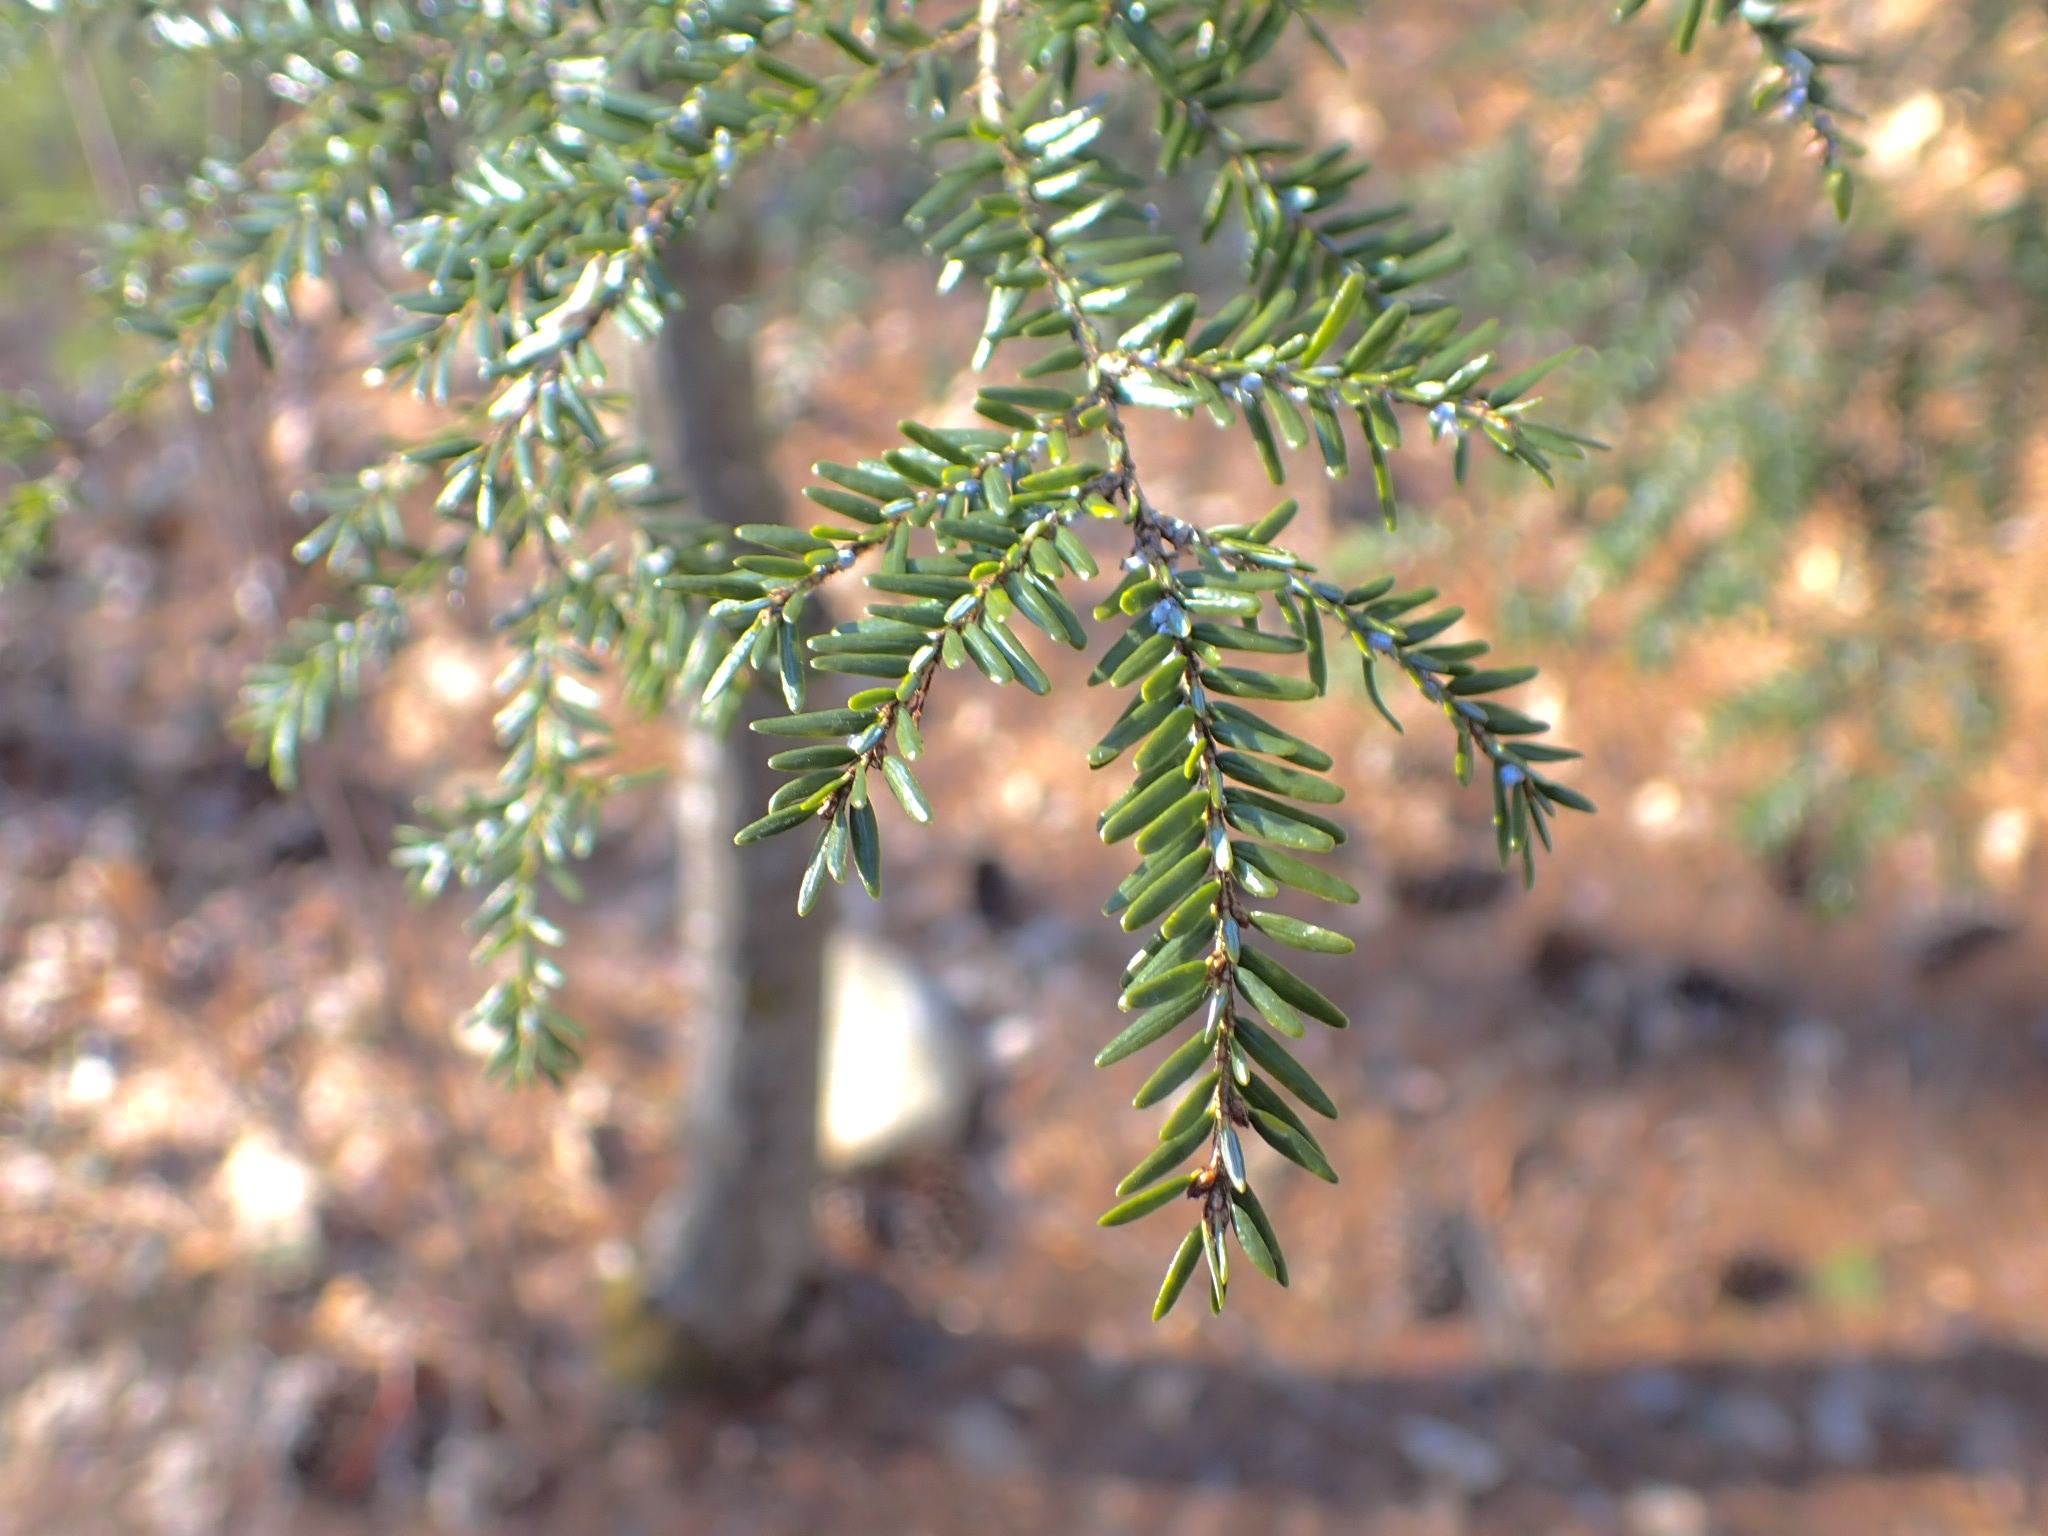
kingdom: Plantae
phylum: Tracheophyta
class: Pinopsida
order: Pinales
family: Pinaceae
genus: Tsuga
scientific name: Tsuga canadensis
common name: Eastern hemlock
